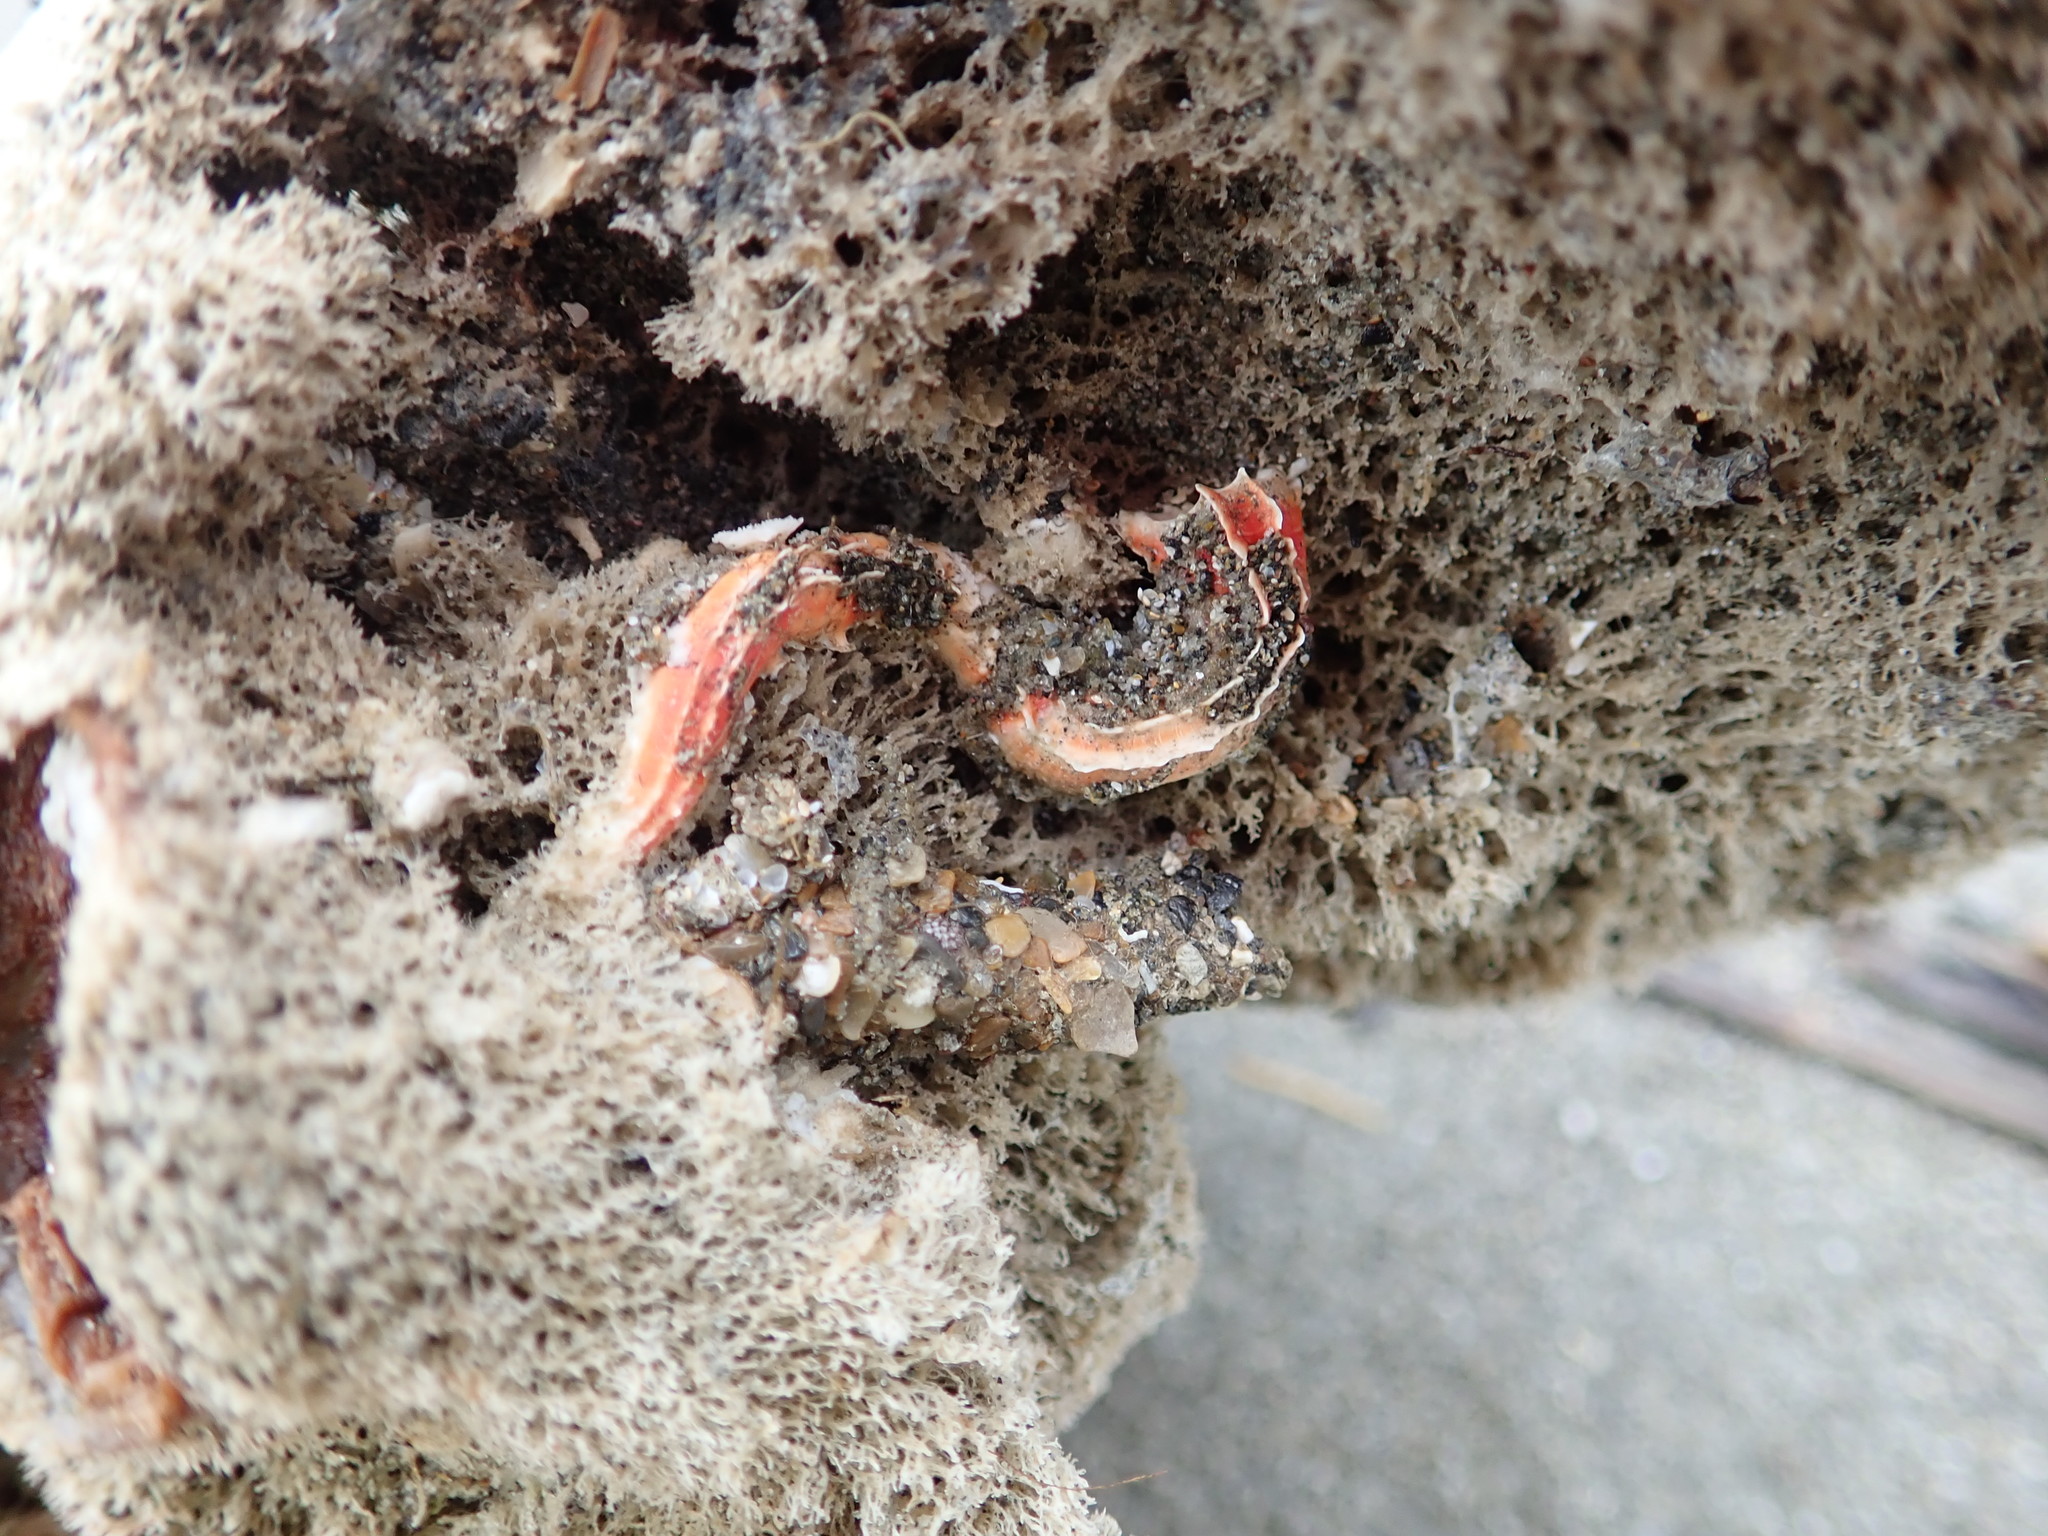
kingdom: Animalia
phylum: Annelida
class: Polychaeta
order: Sabellida
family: Serpulidae
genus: Galeolaria
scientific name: Galeolaria hystrix
